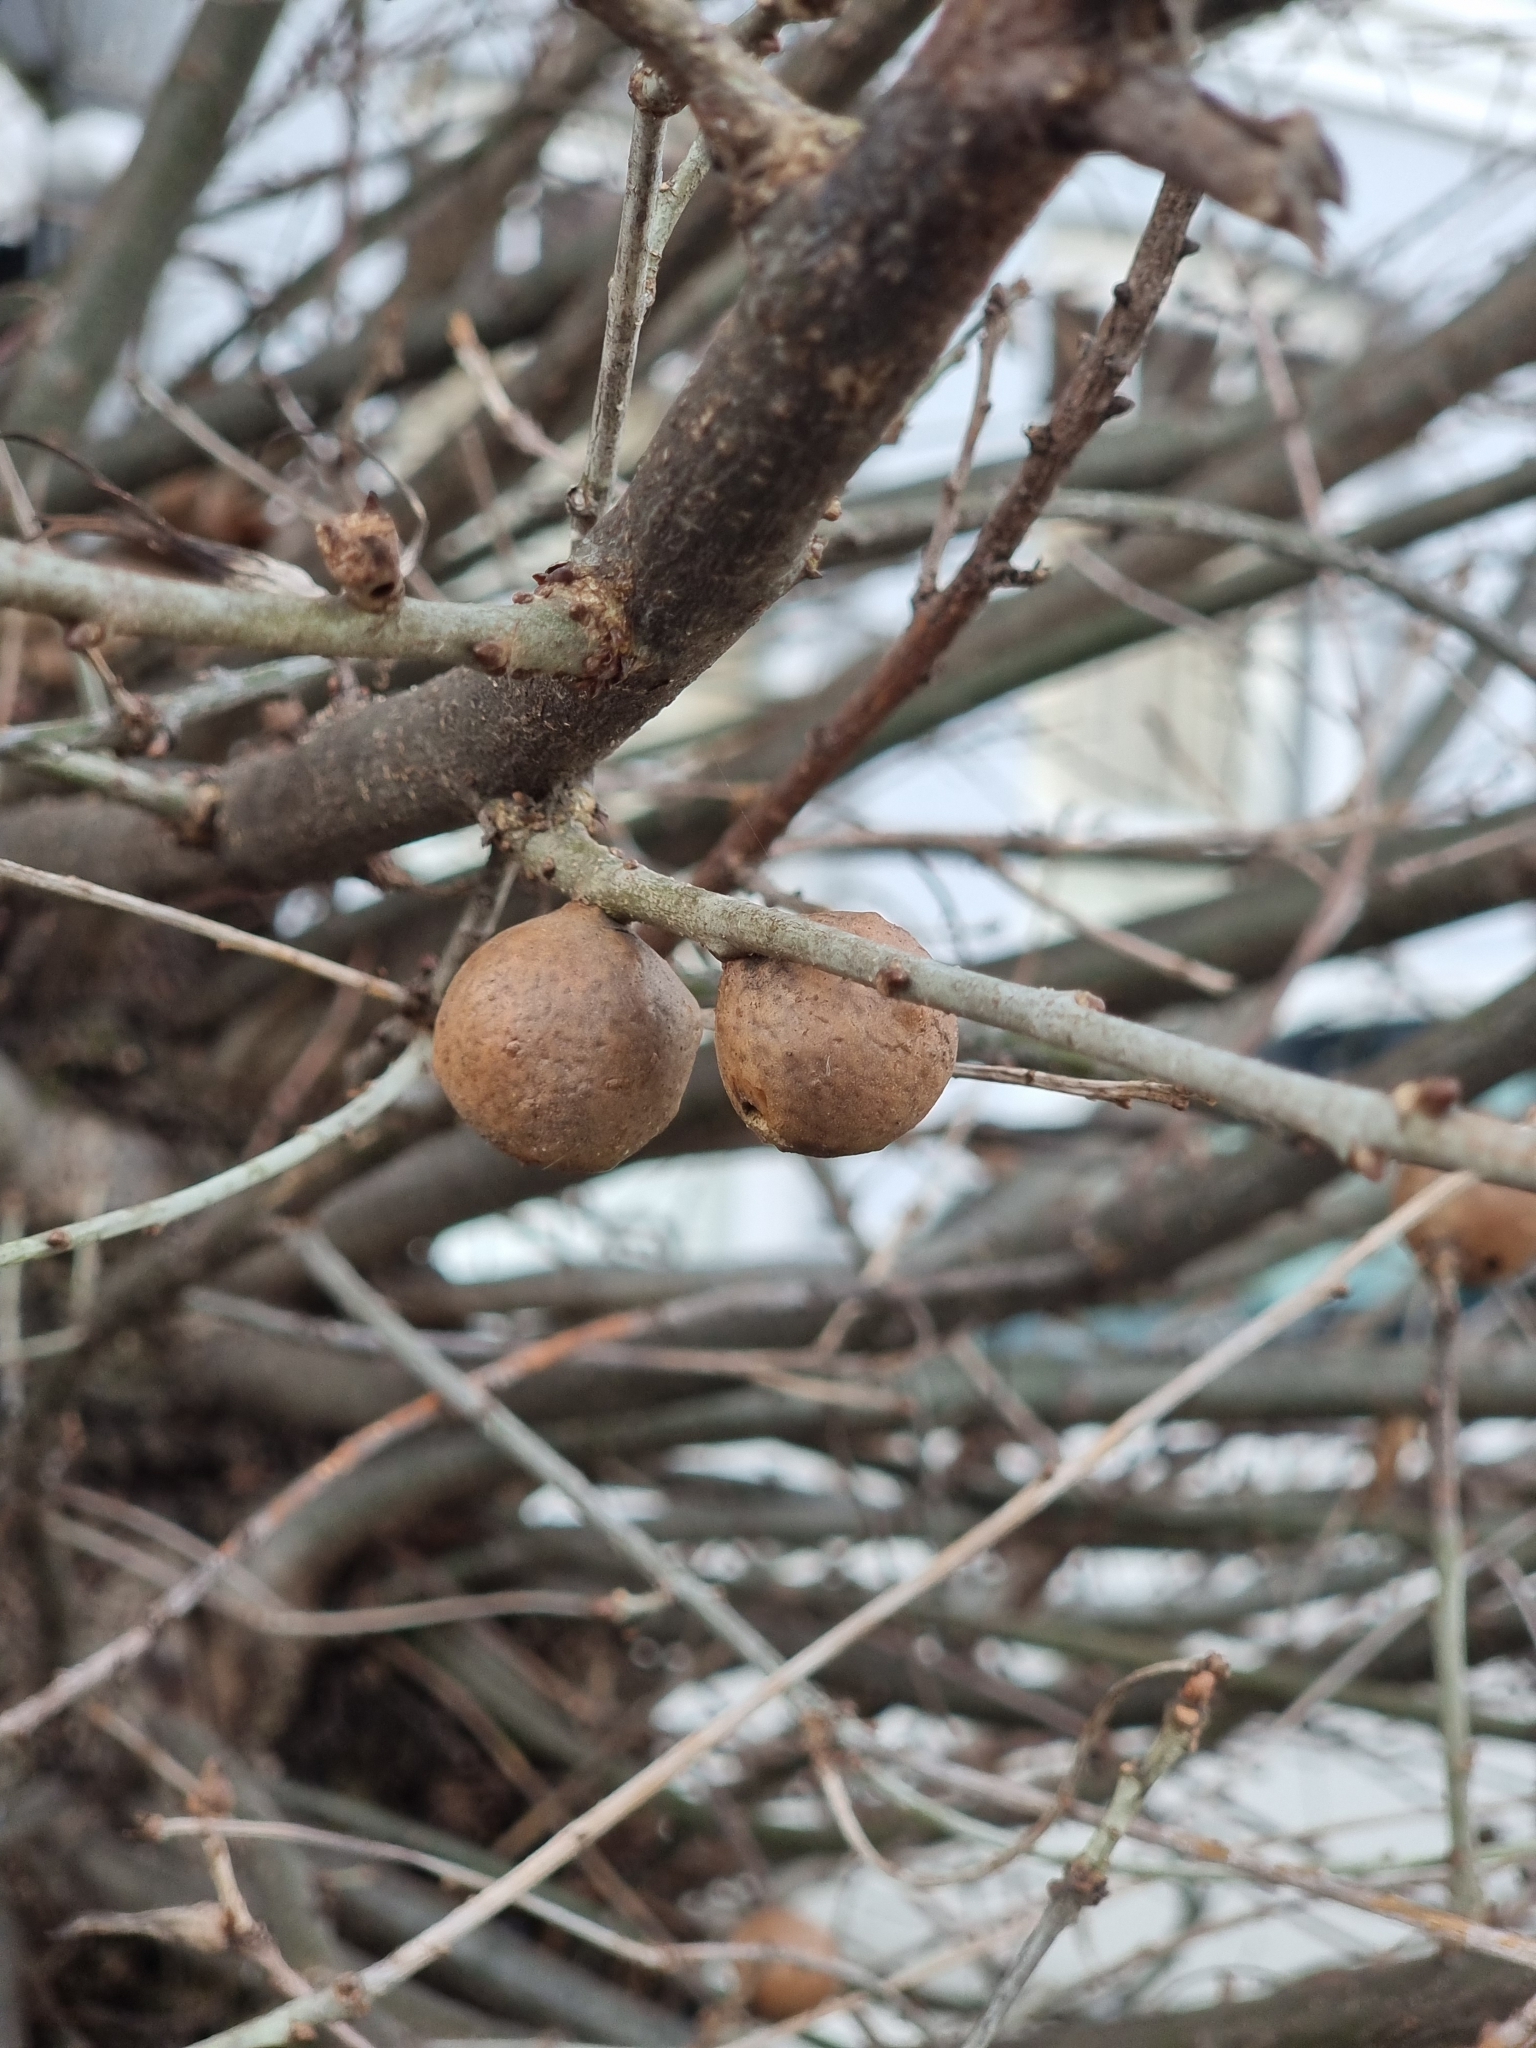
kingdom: Animalia
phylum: Arthropoda
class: Insecta
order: Hymenoptera
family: Cynipidae
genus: Andricus
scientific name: Andricus kollari
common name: Marble gall
